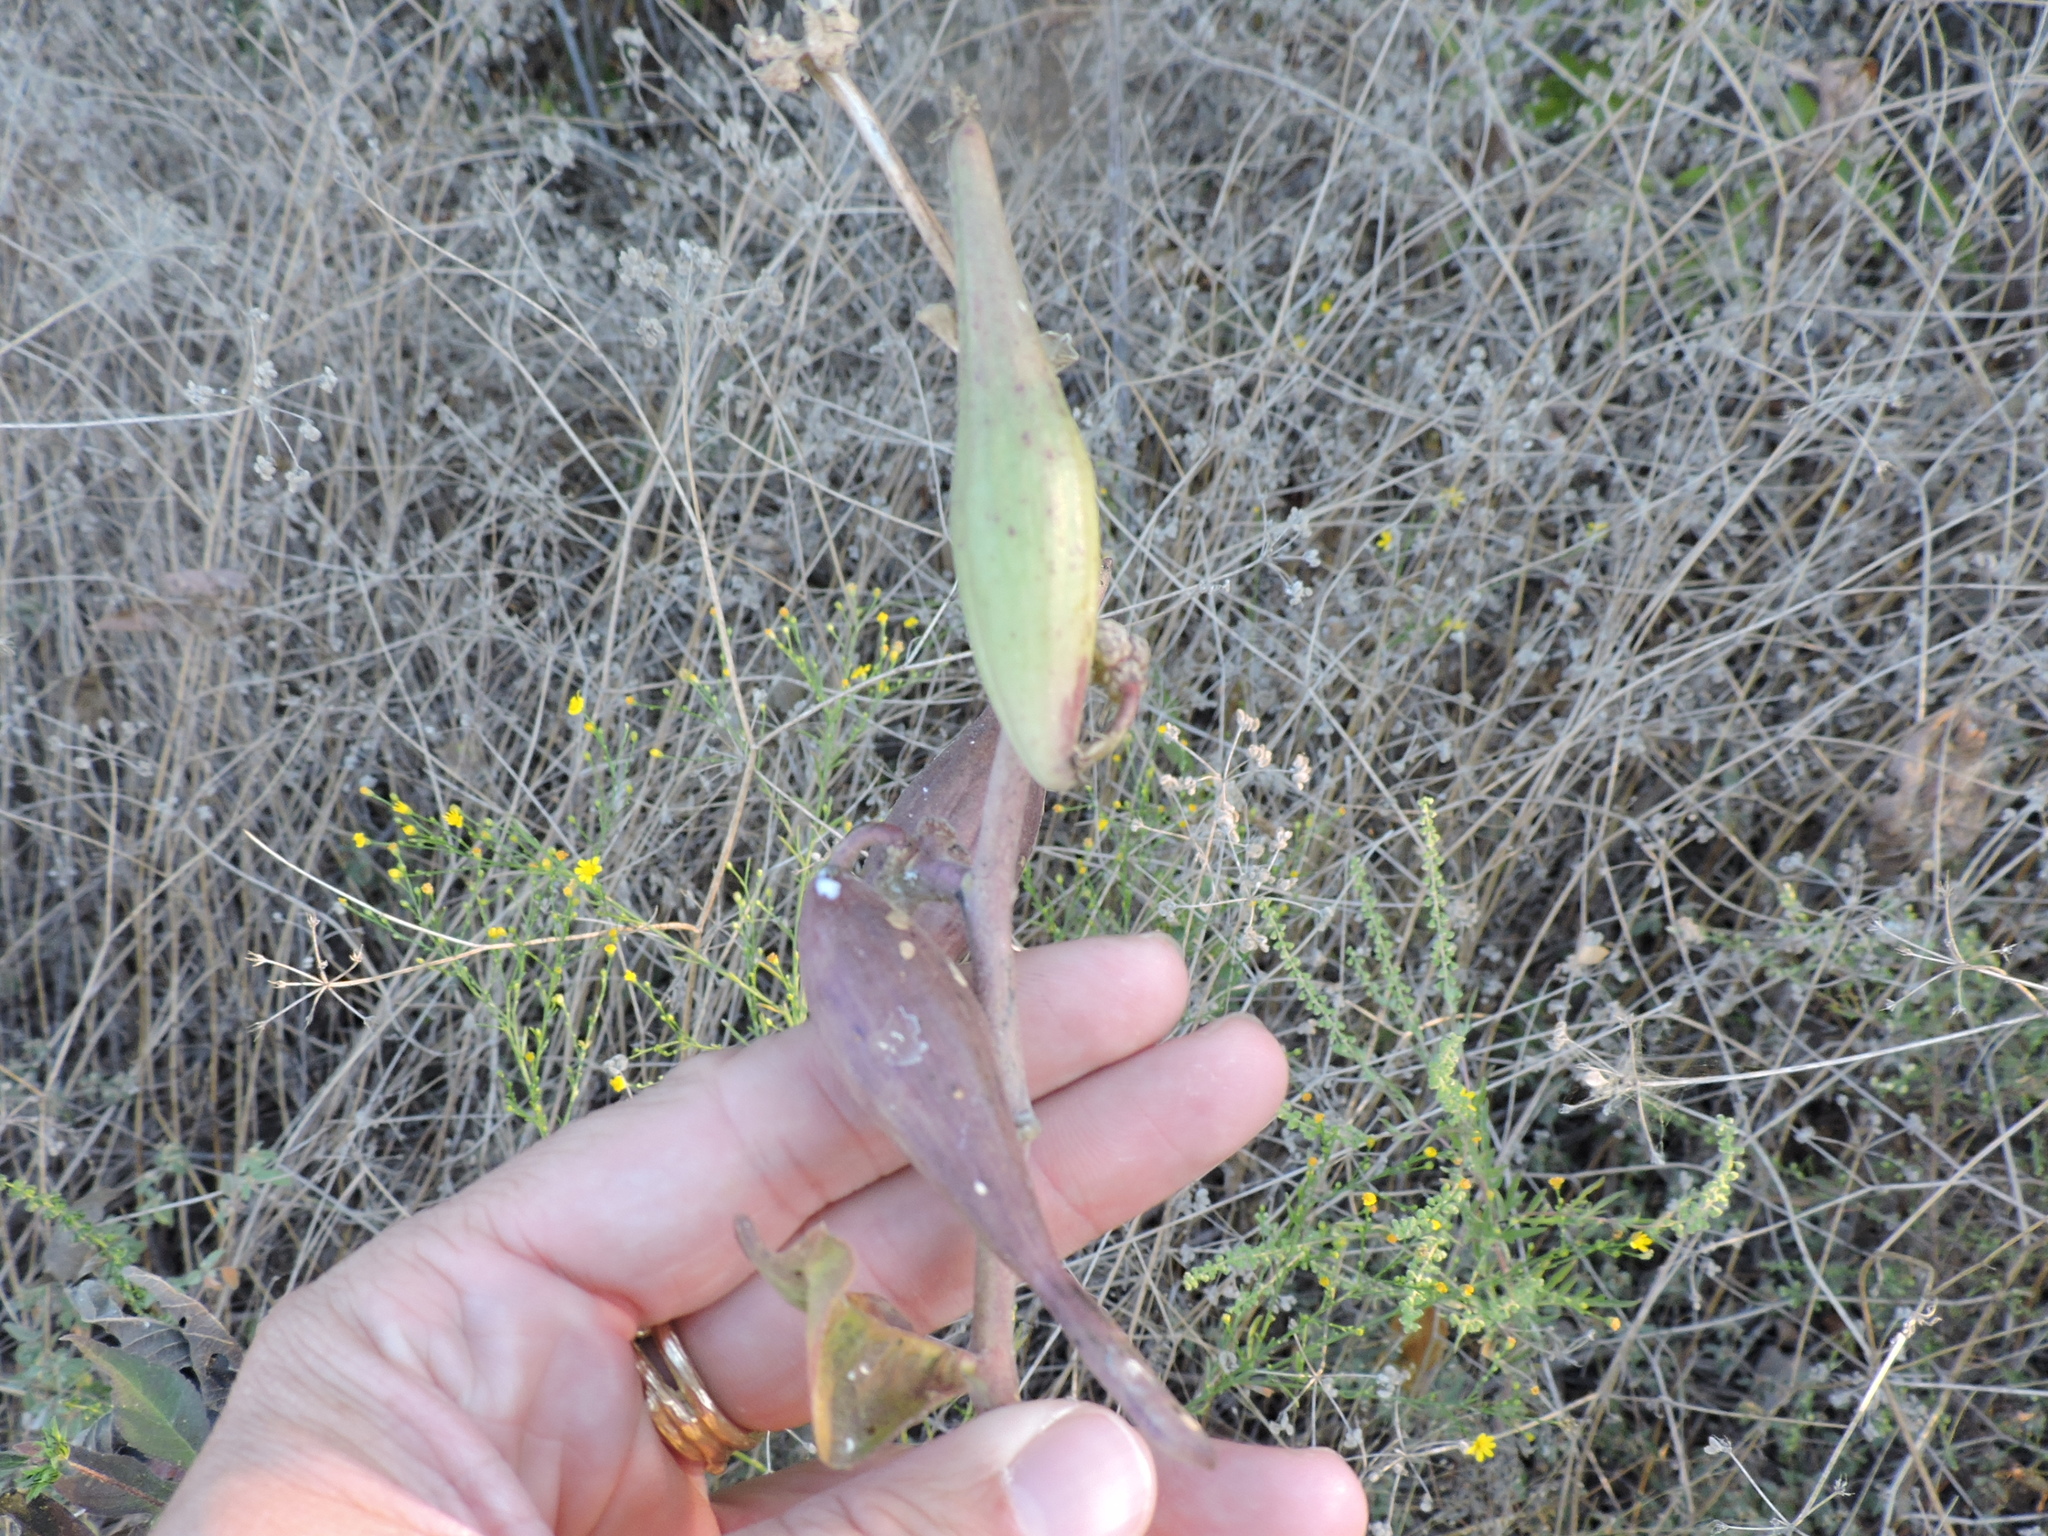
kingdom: Plantae
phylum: Tracheophyta
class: Magnoliopsida
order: Gentianales
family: Apocynaceae
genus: Asclepias
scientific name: Asclepias viridiflora
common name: Green comet milkweed
